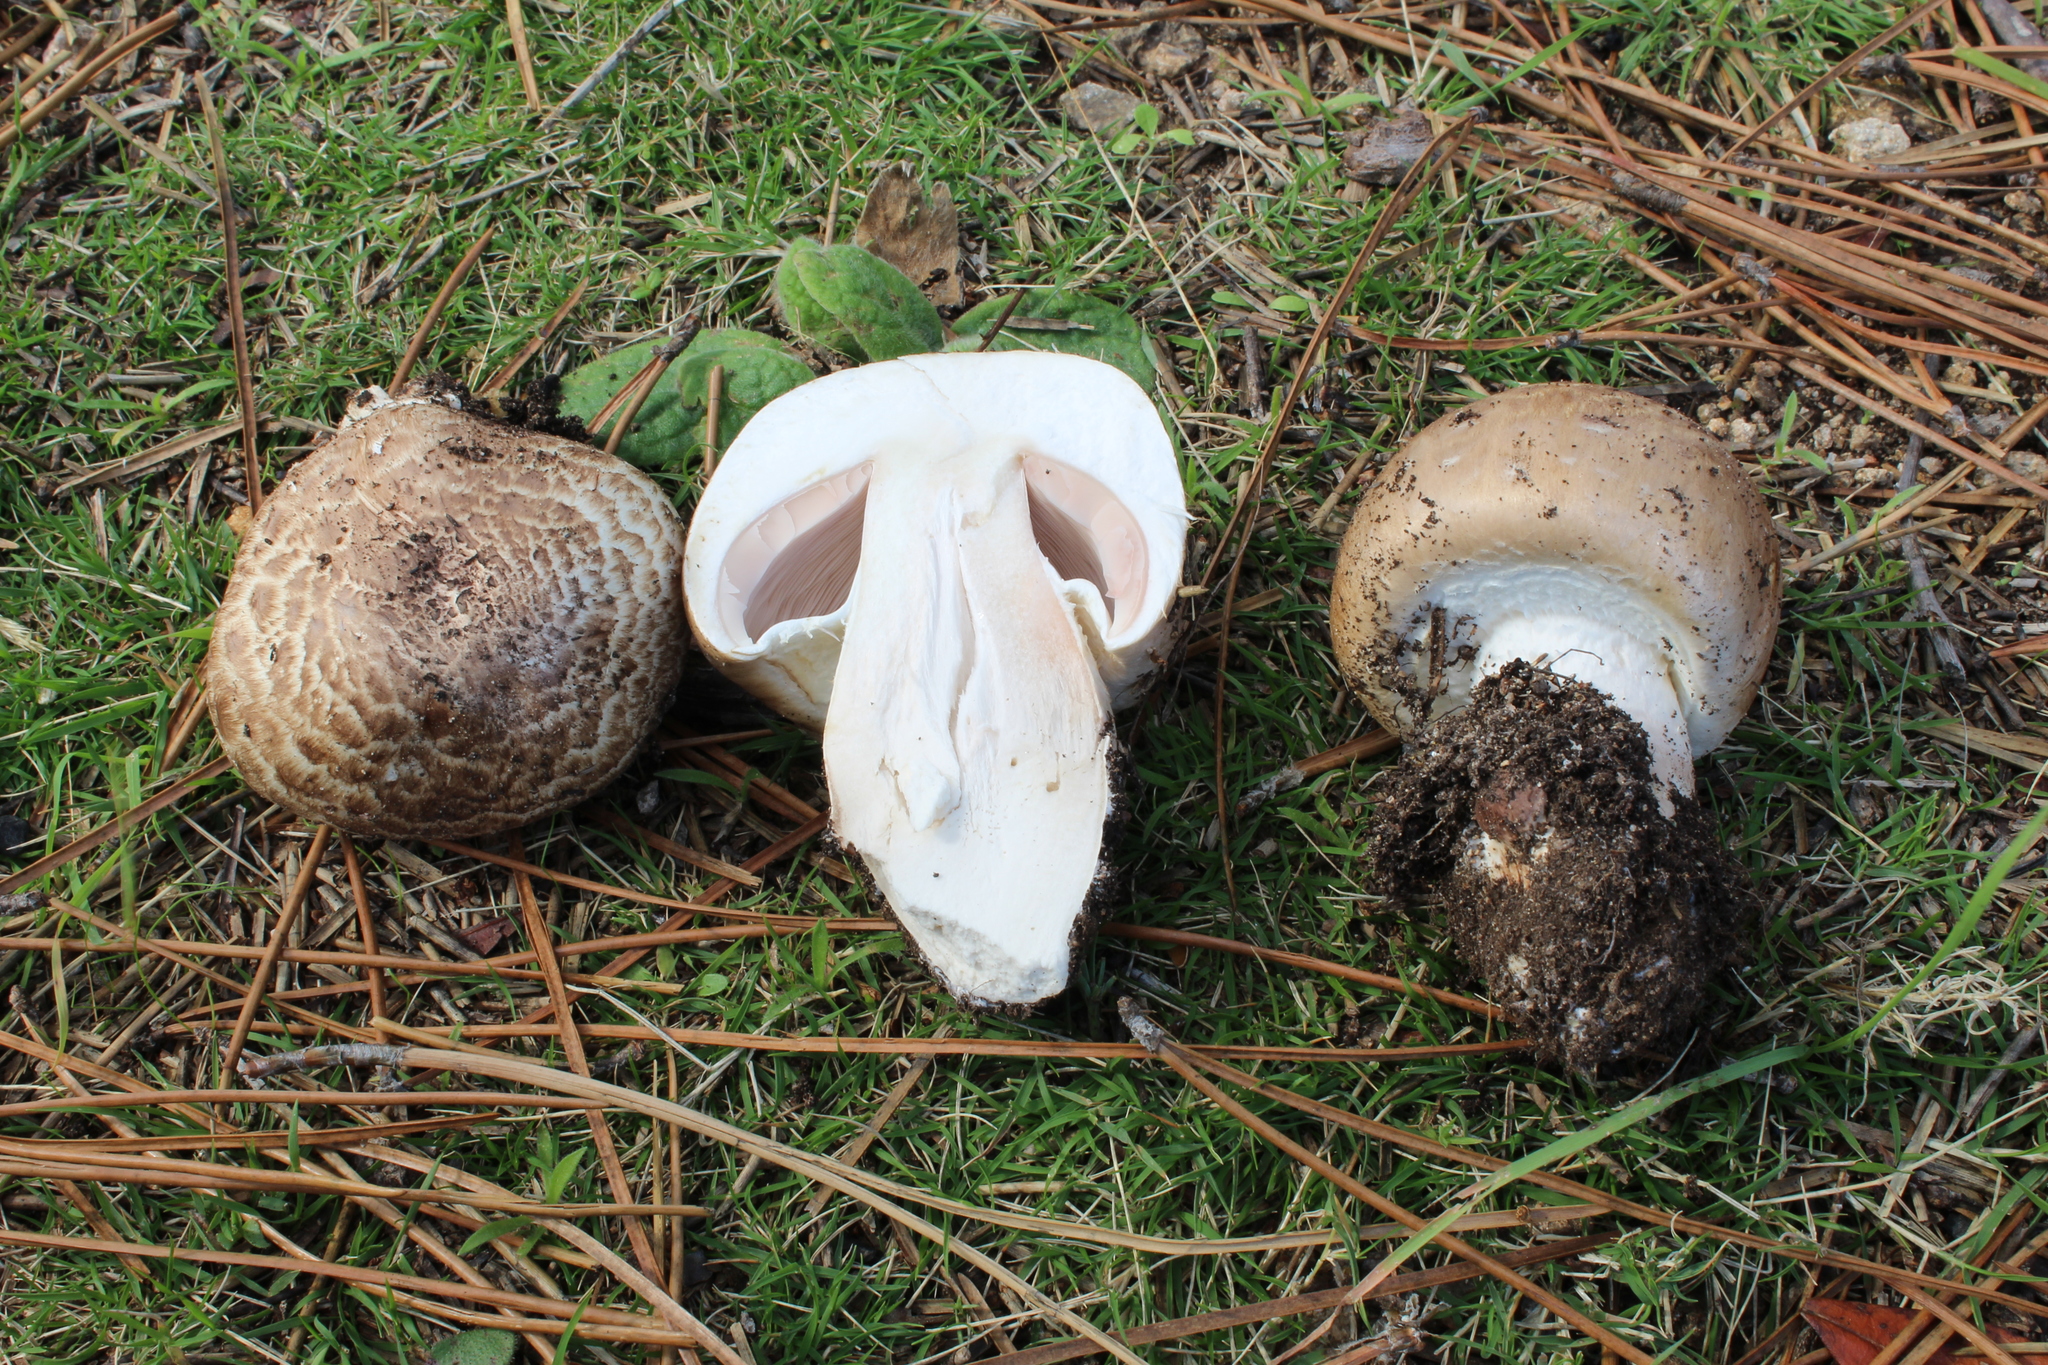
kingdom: Fungi
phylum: Basidiomycota
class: Agaricomycetes
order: Agaricales
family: Agaricaceae
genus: Agaricus
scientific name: Agaricus porphyrocephalus
